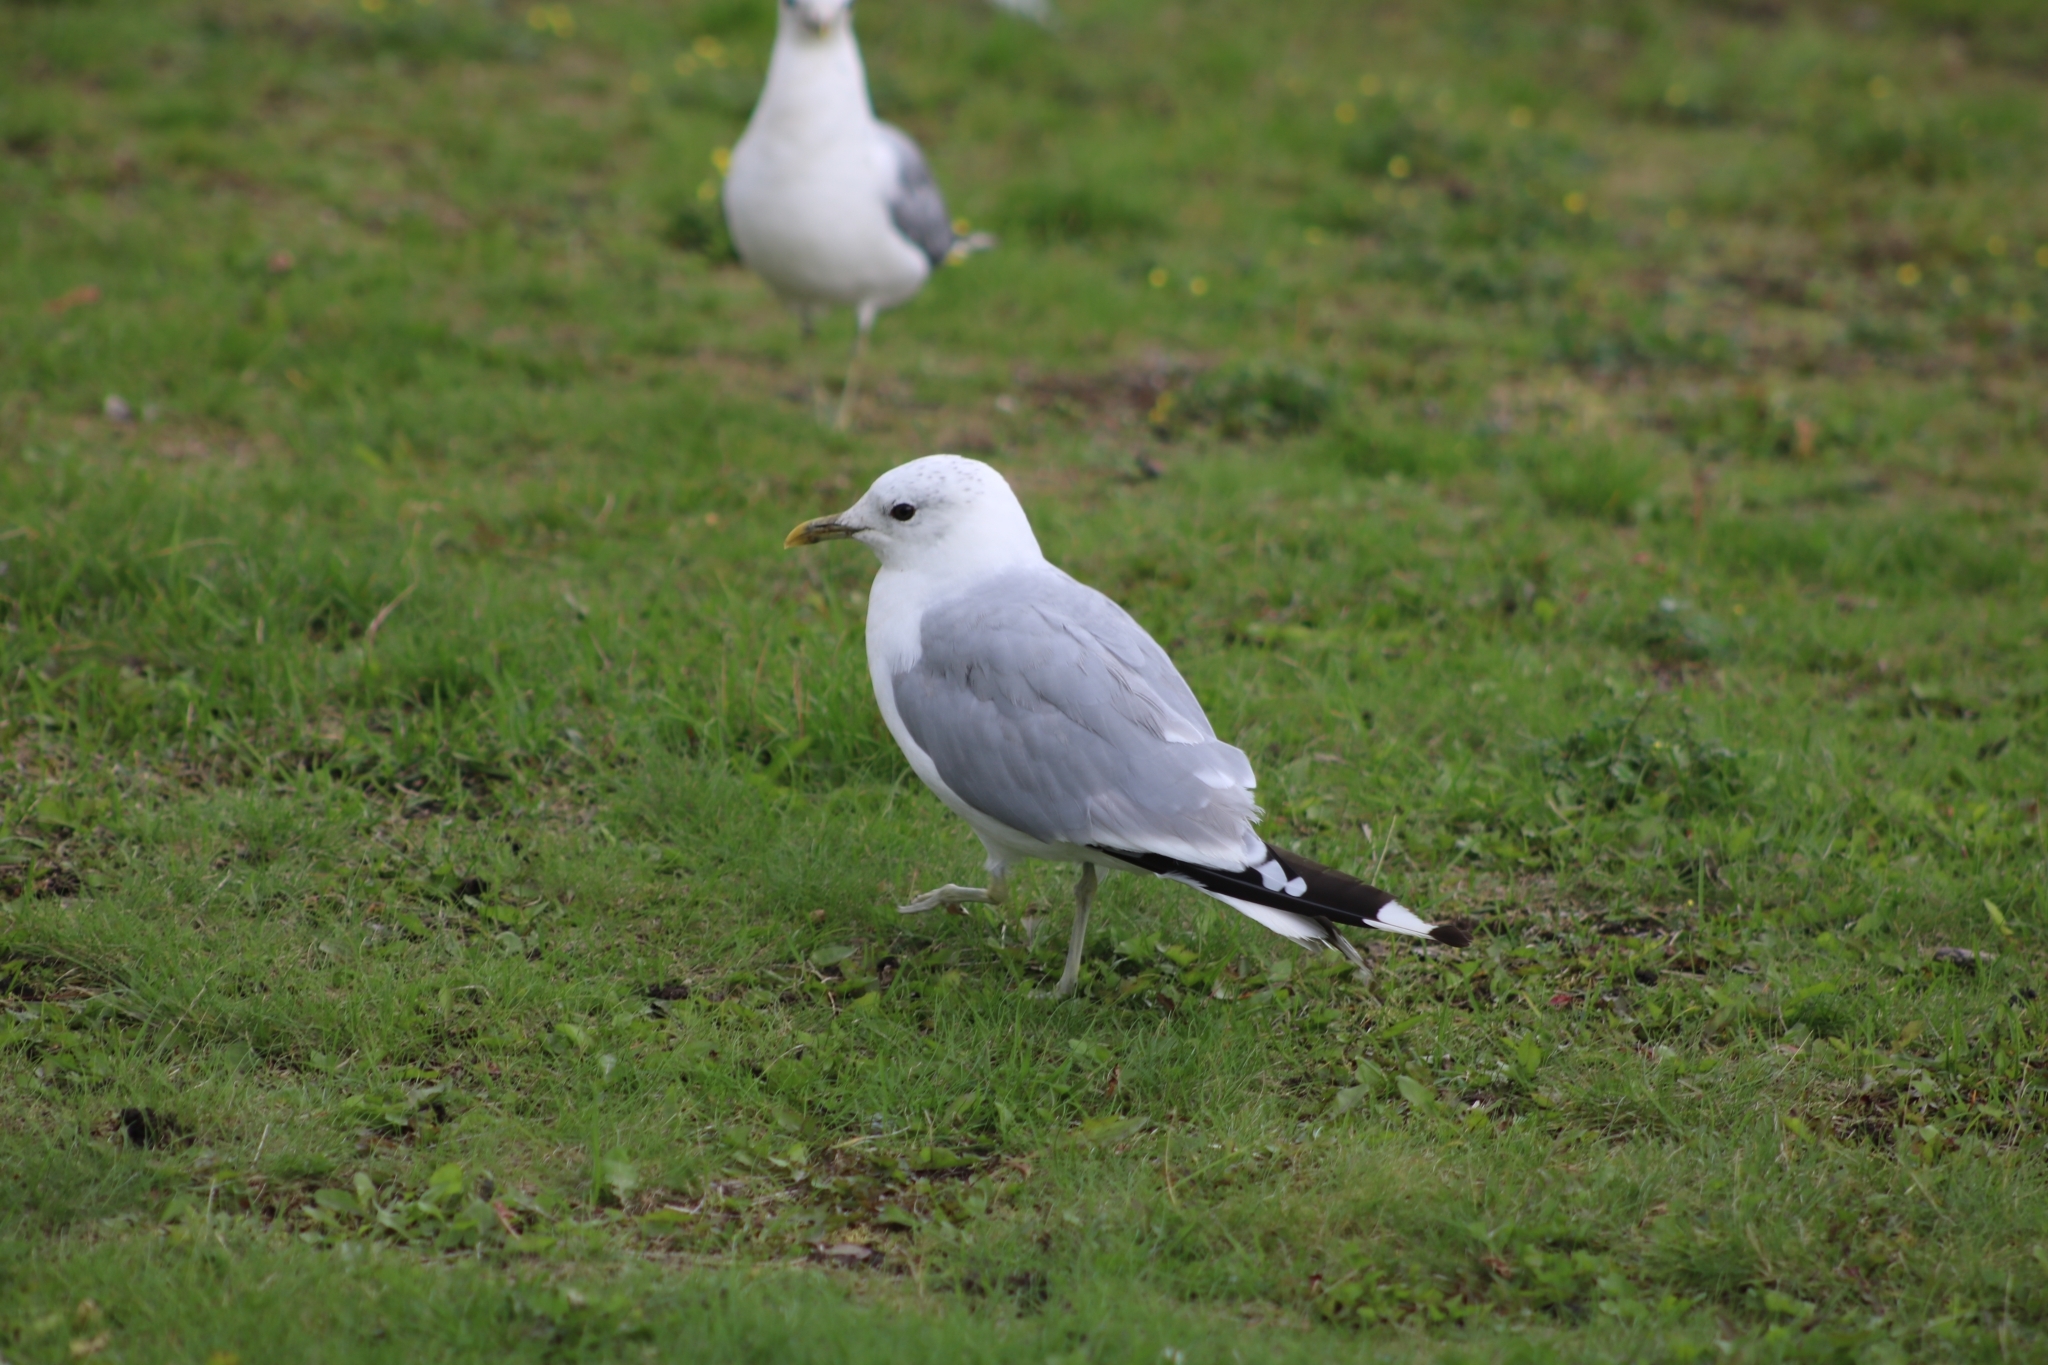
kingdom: Animalia
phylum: Chordata
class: Aves
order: Charadriiformes
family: Laridae
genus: Larus
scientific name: Larus canus
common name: Mew gull
